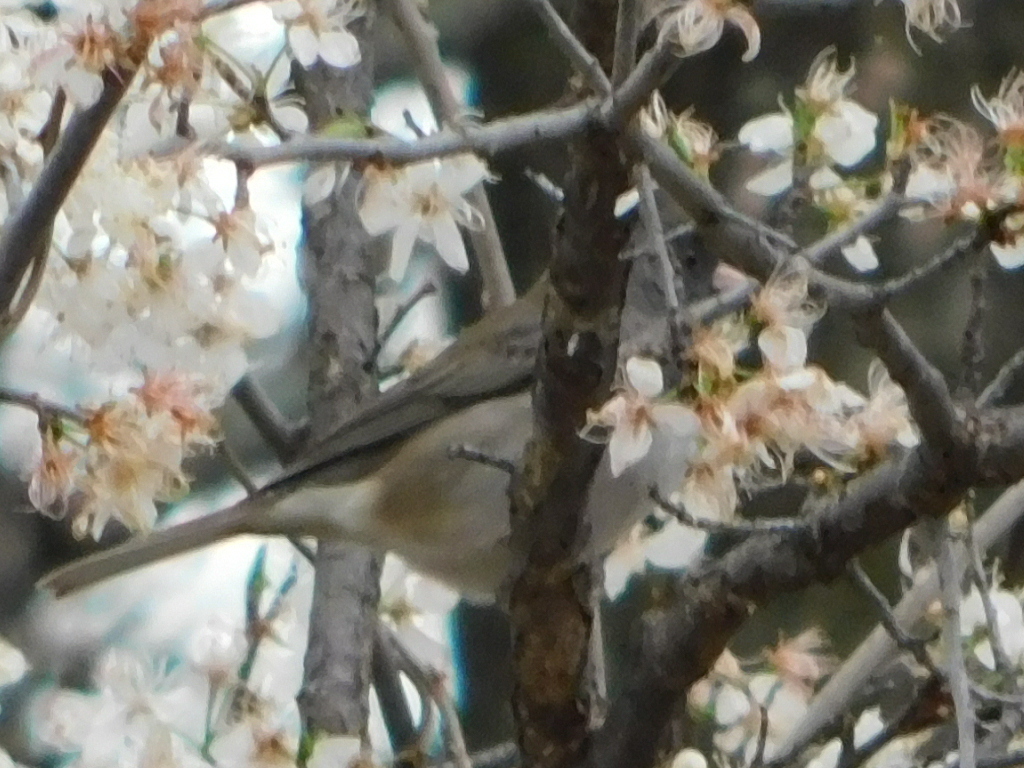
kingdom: Animalia
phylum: Chordata
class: Aves
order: Passeriformes
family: Passerellidae
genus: Junco
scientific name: Junco hyemalis
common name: Dark-eyed junco
